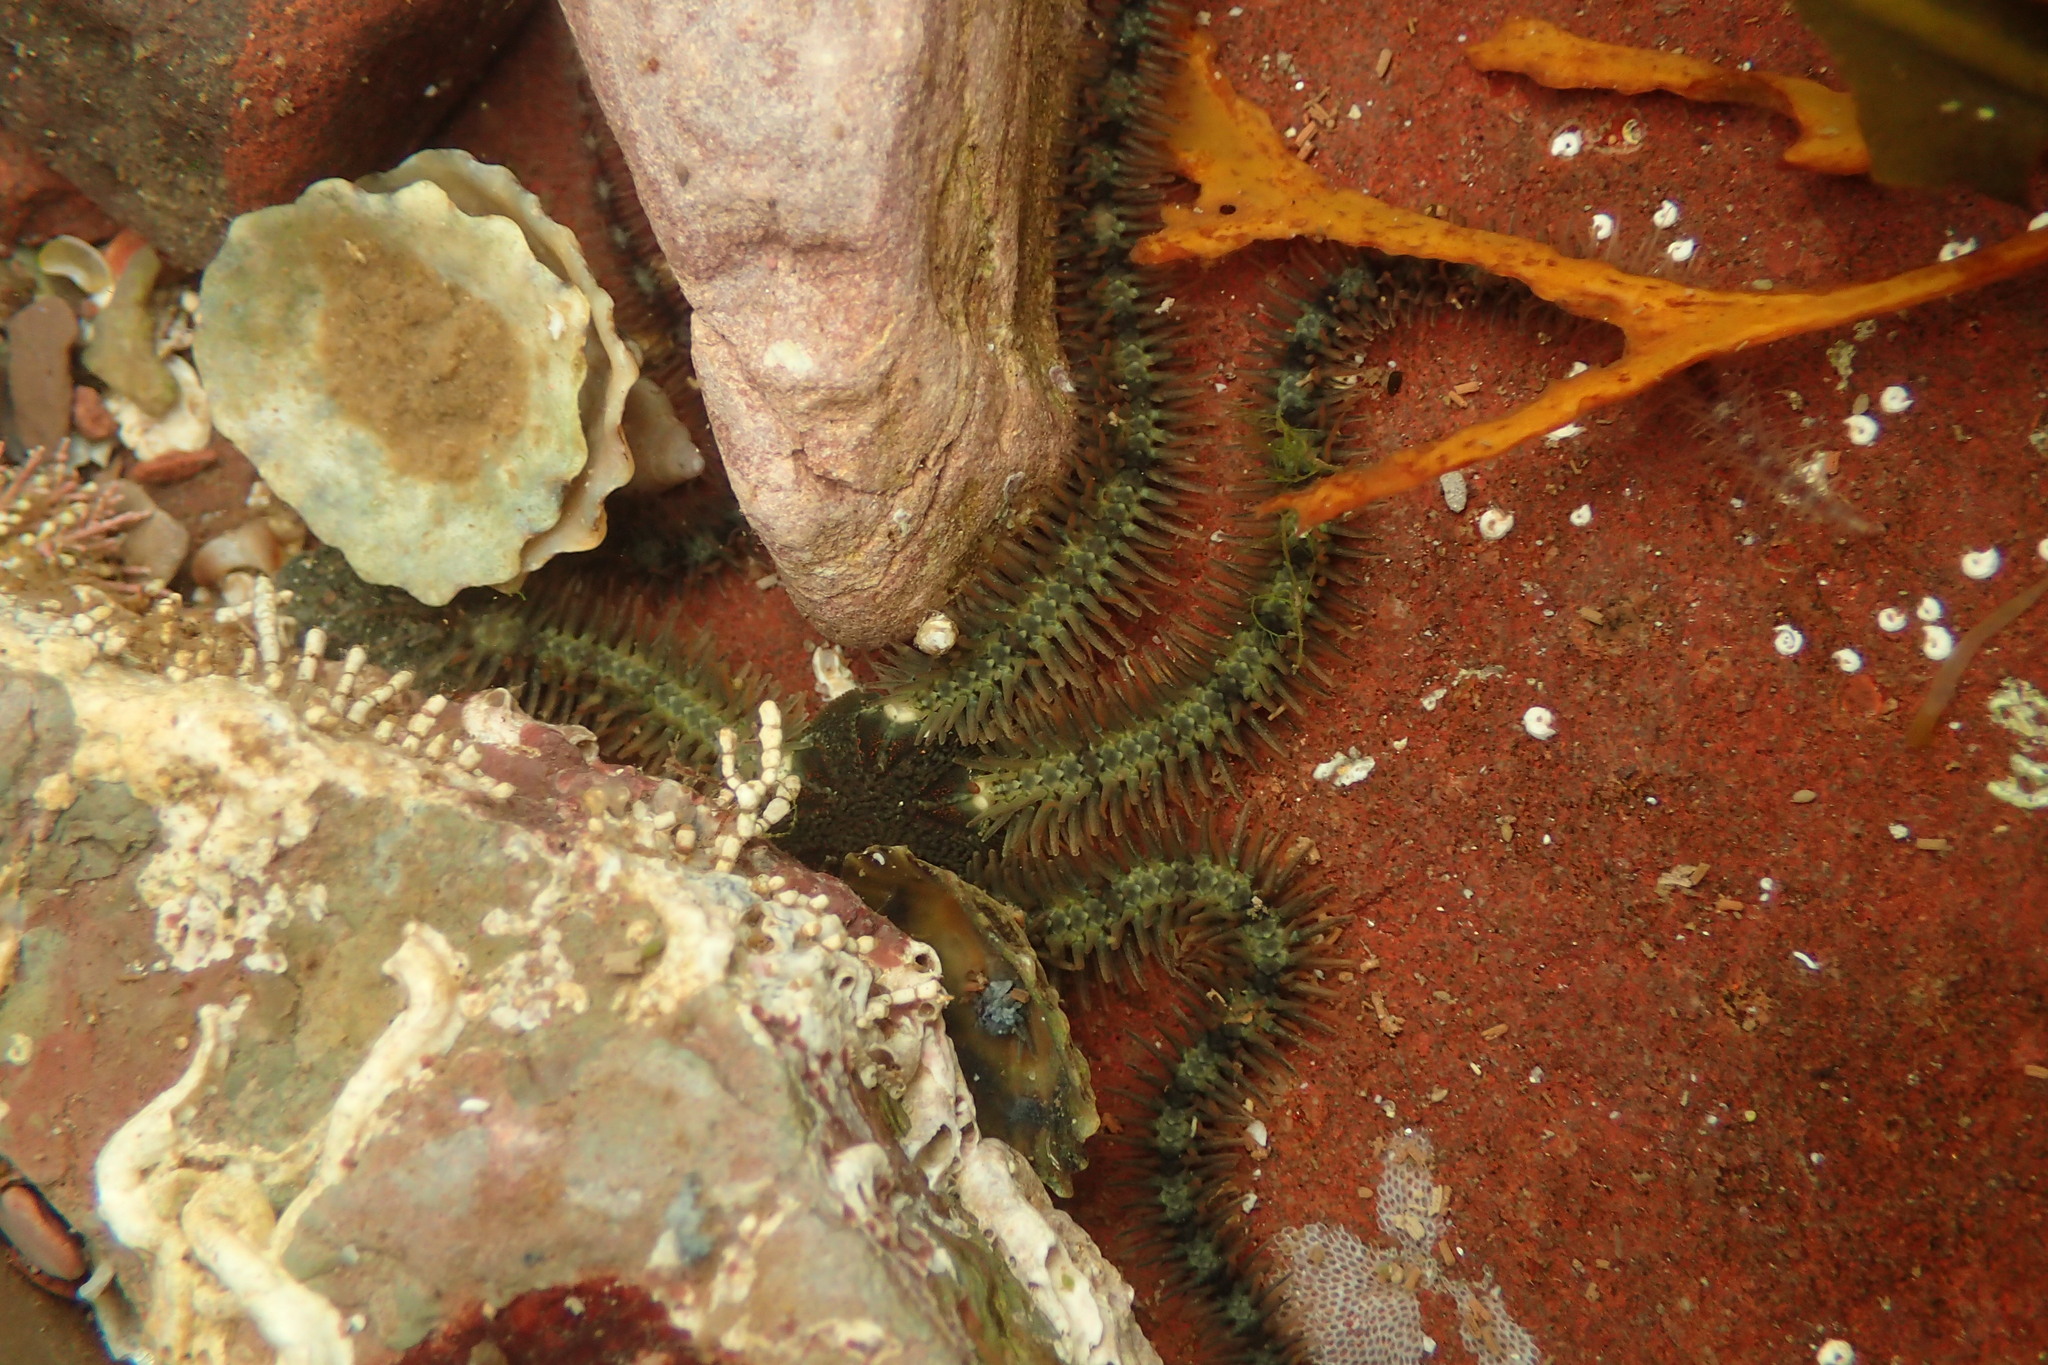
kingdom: Animalia
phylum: Echinodermata
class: Ophiuroidea
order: Amphilepidida
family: Ophiotrichidae
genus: Ophiothrix
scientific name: Ophiothrix fragilis
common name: Common brittlestar
